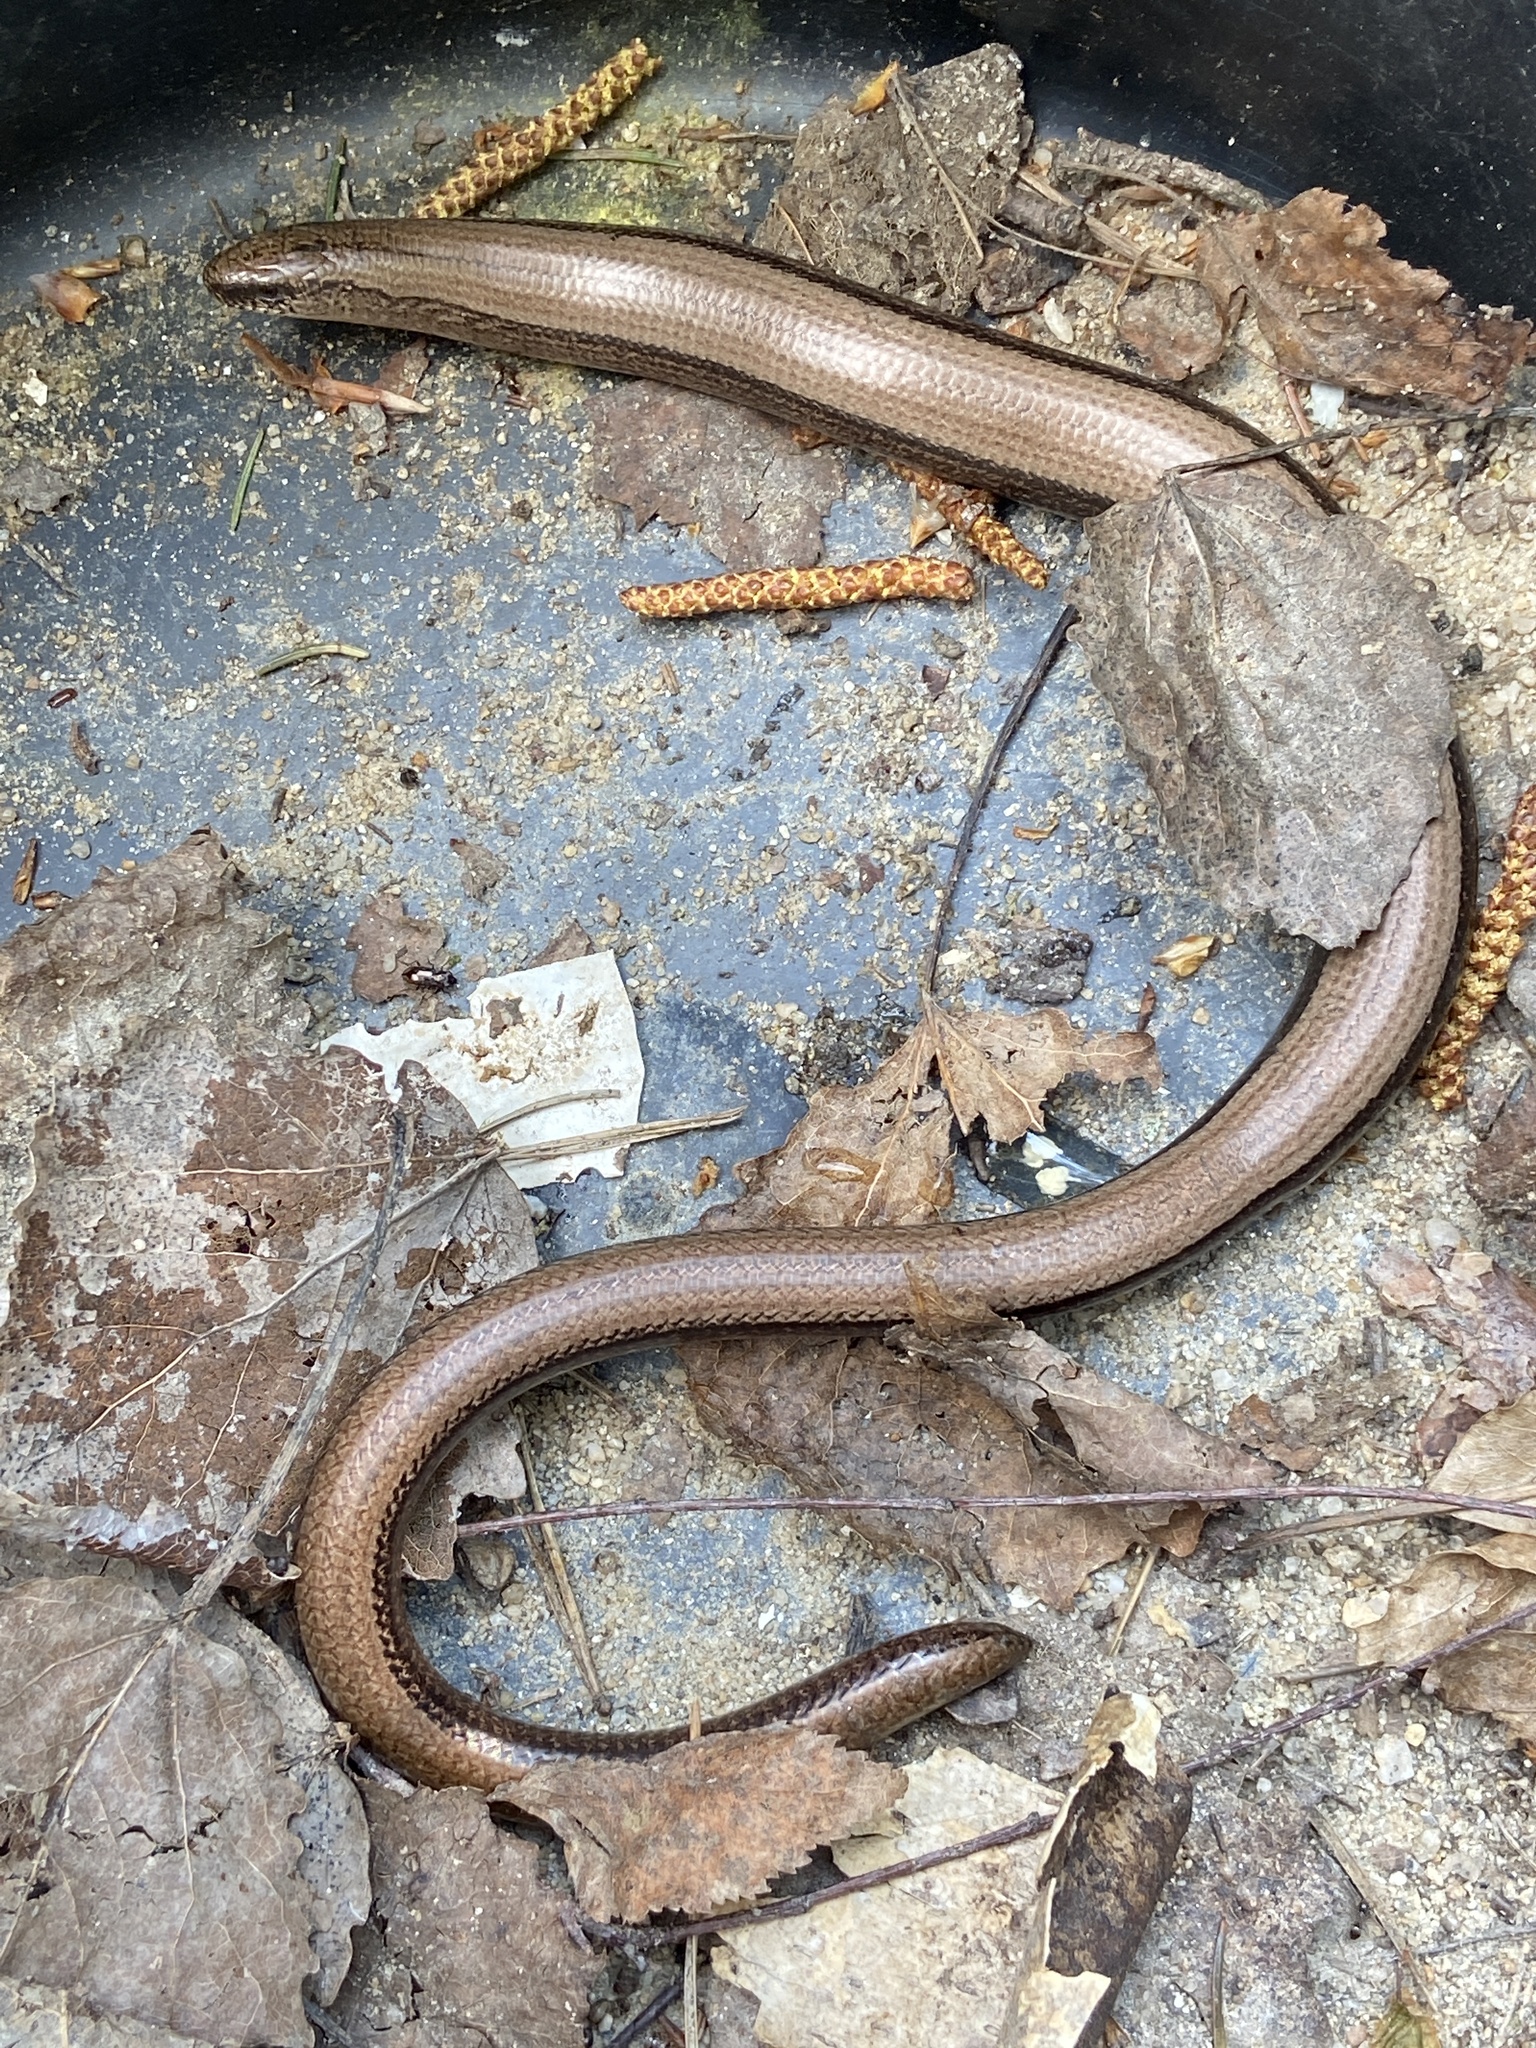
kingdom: Animalia
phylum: Chordata
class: Squamata
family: Anguidae
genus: Anguis
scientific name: Anguis fragilis
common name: Slow worm
